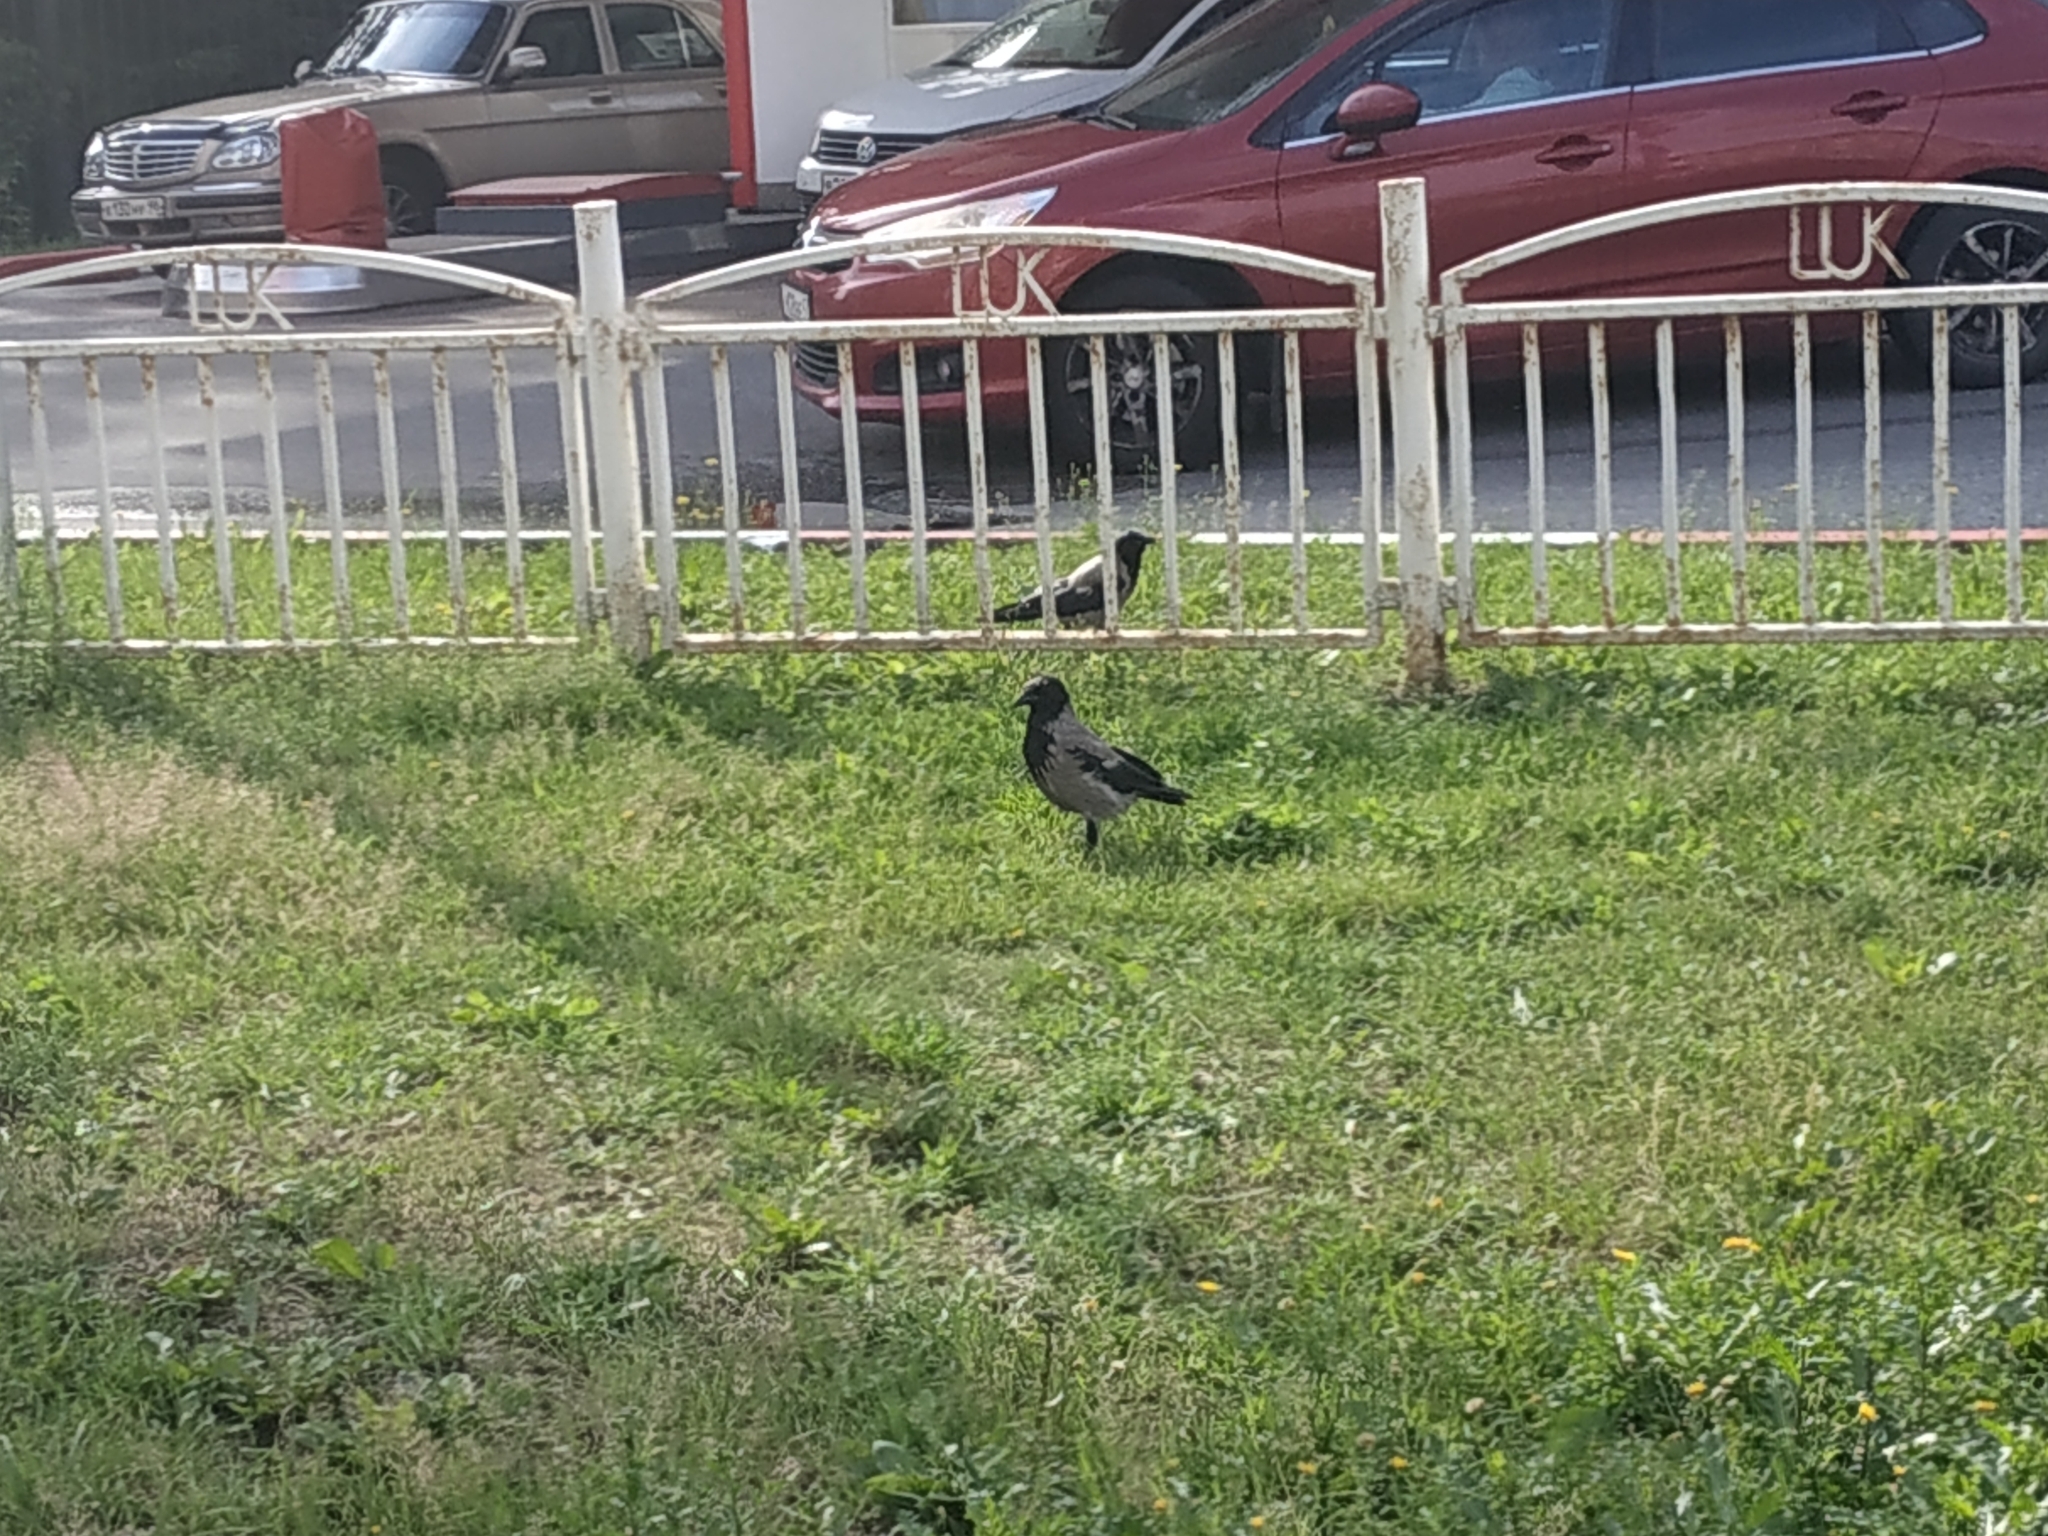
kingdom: Animalia
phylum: Chordata
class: Aves
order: Passeriformes
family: Corvidae
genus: Corvus
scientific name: Corvus cornix
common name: Hooded crow
